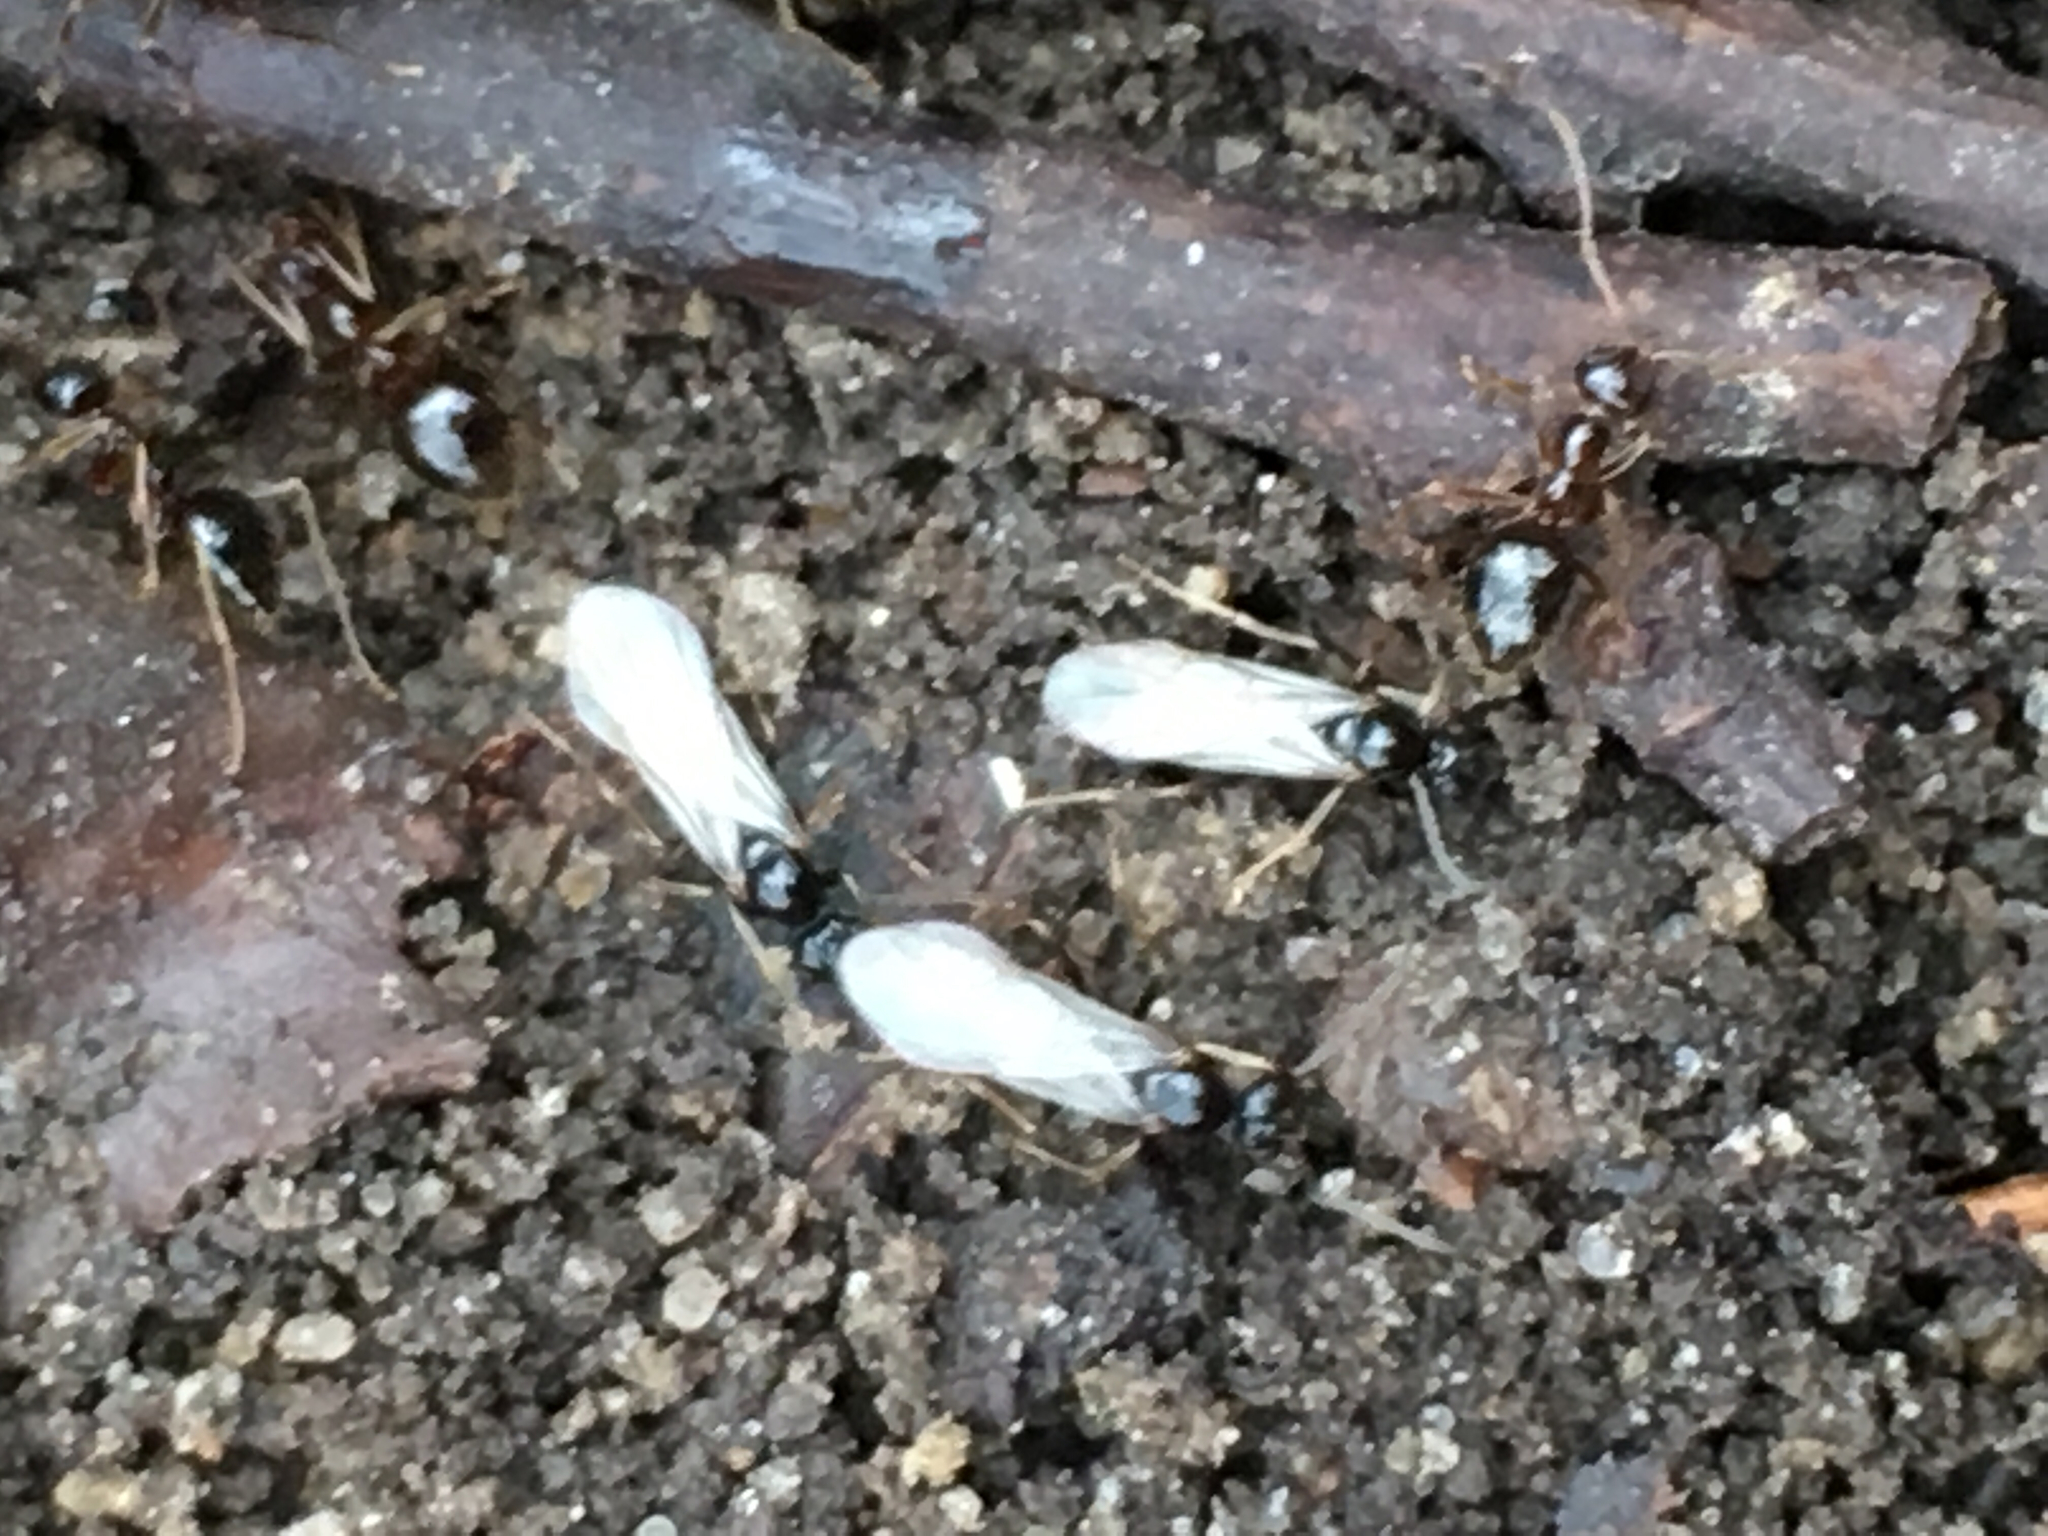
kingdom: Animalia
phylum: Arthropoda
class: Insecta
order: Hymenoptera
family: Formicidae
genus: Prenolepis
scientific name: Prenolepis imparis
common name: Small honey ant
